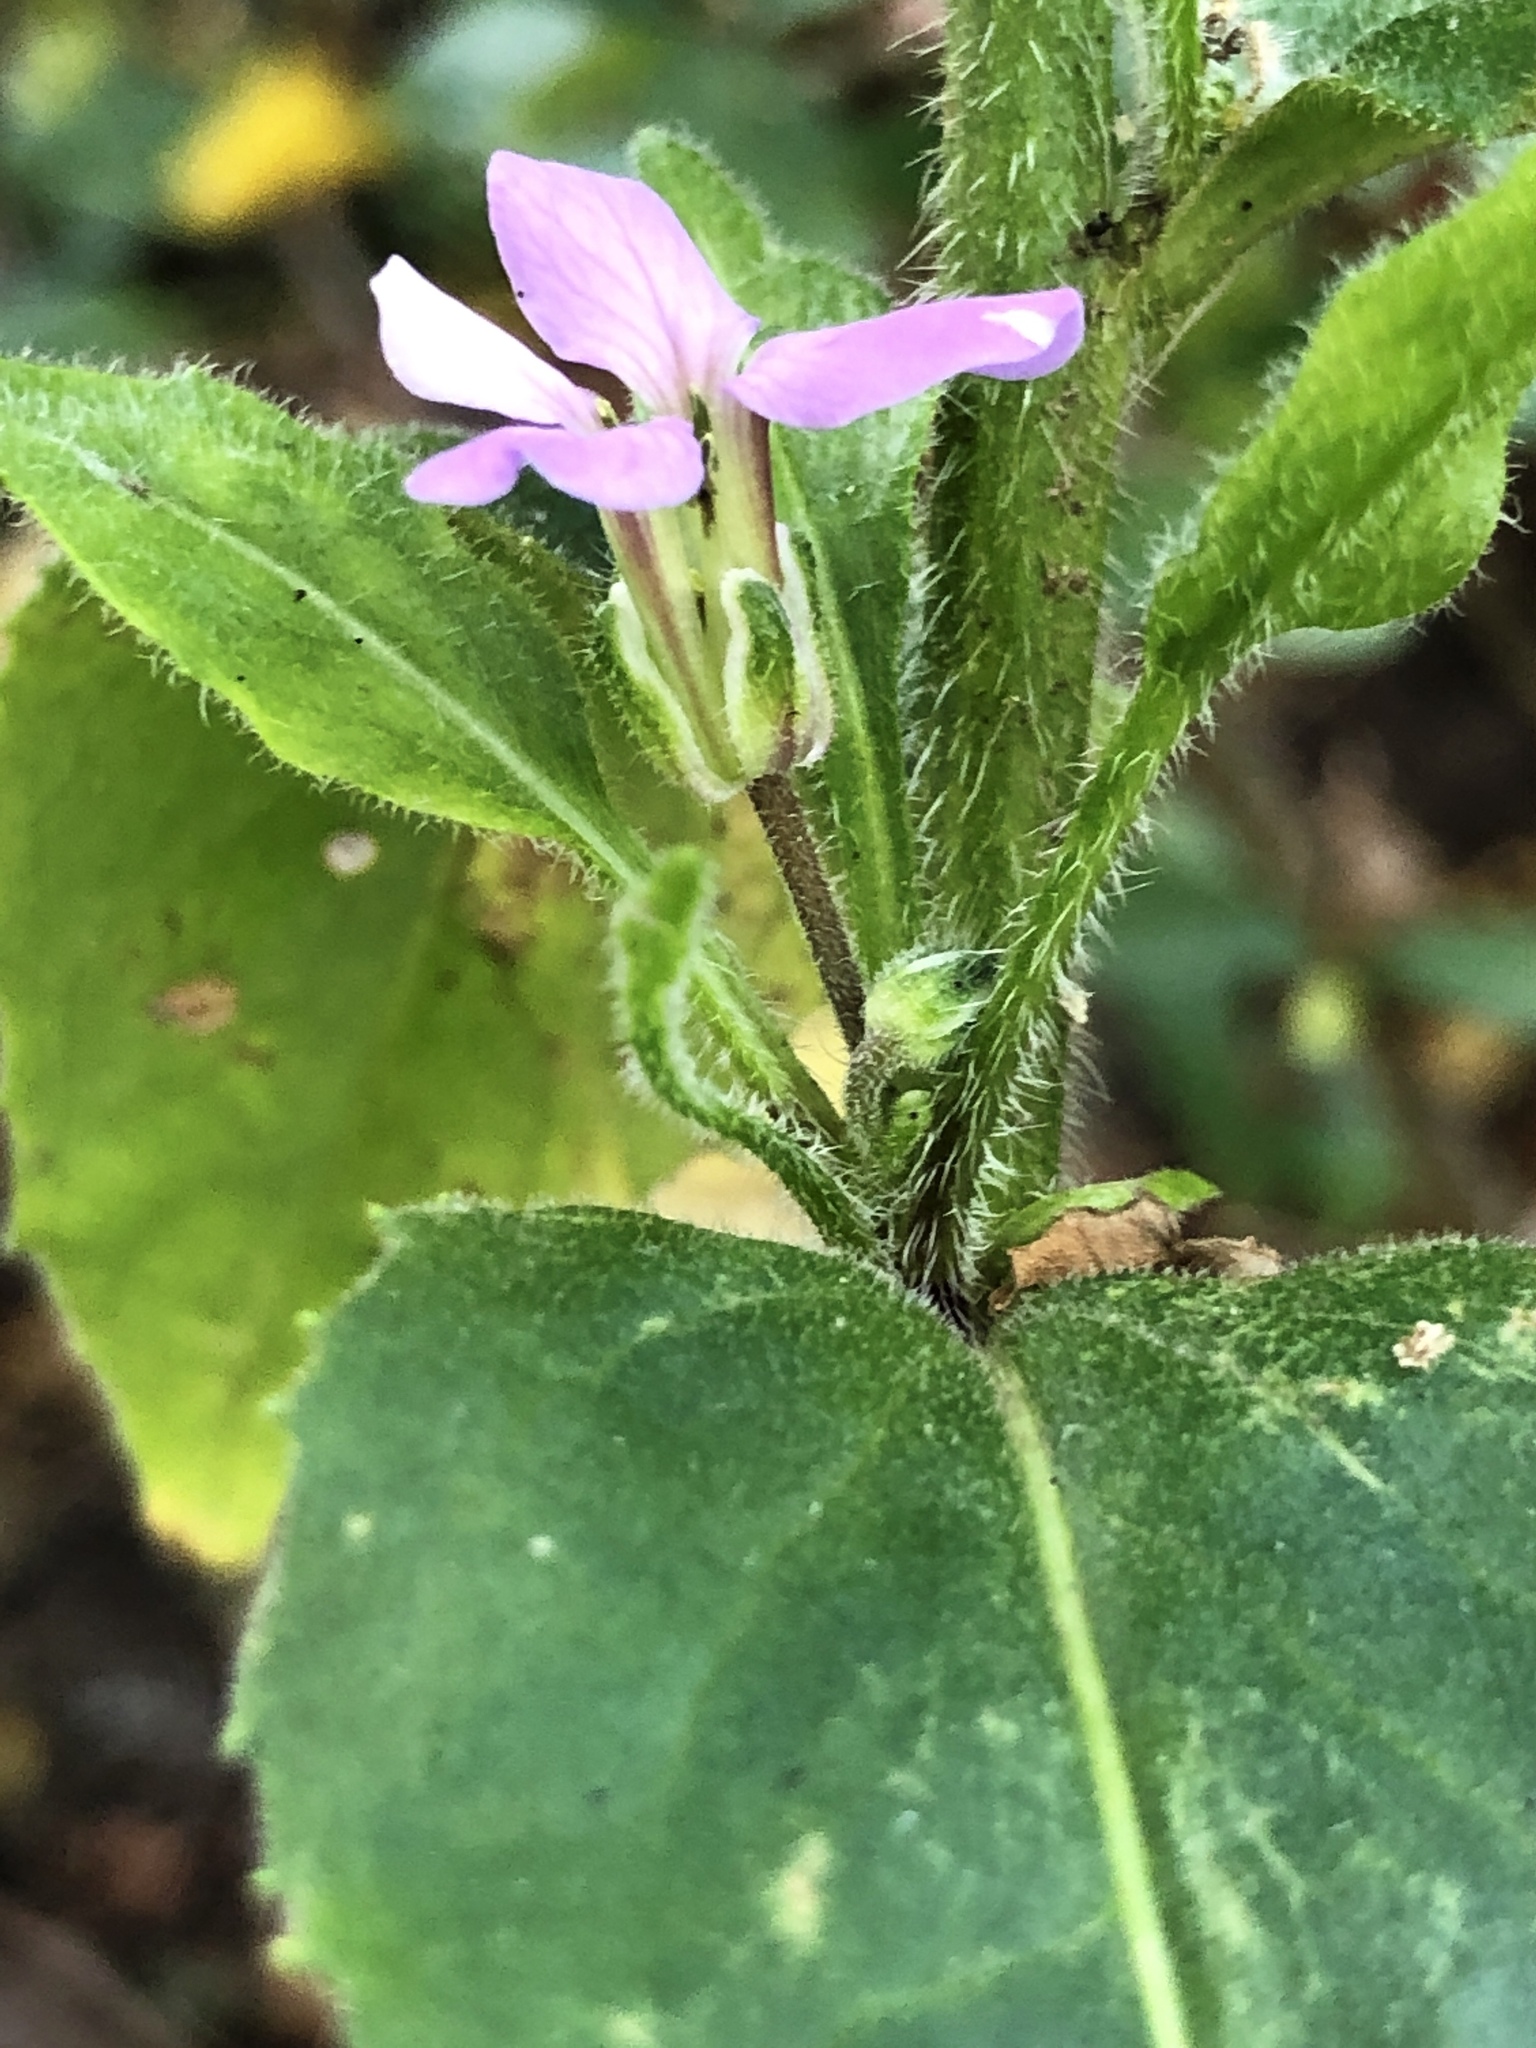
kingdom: Plantae
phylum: Tracheophyta
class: Magnoliopsida
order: Brassicales
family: Brassicaceae
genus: Hesperis
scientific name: Hesperis matronalis
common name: Dame's-violet
